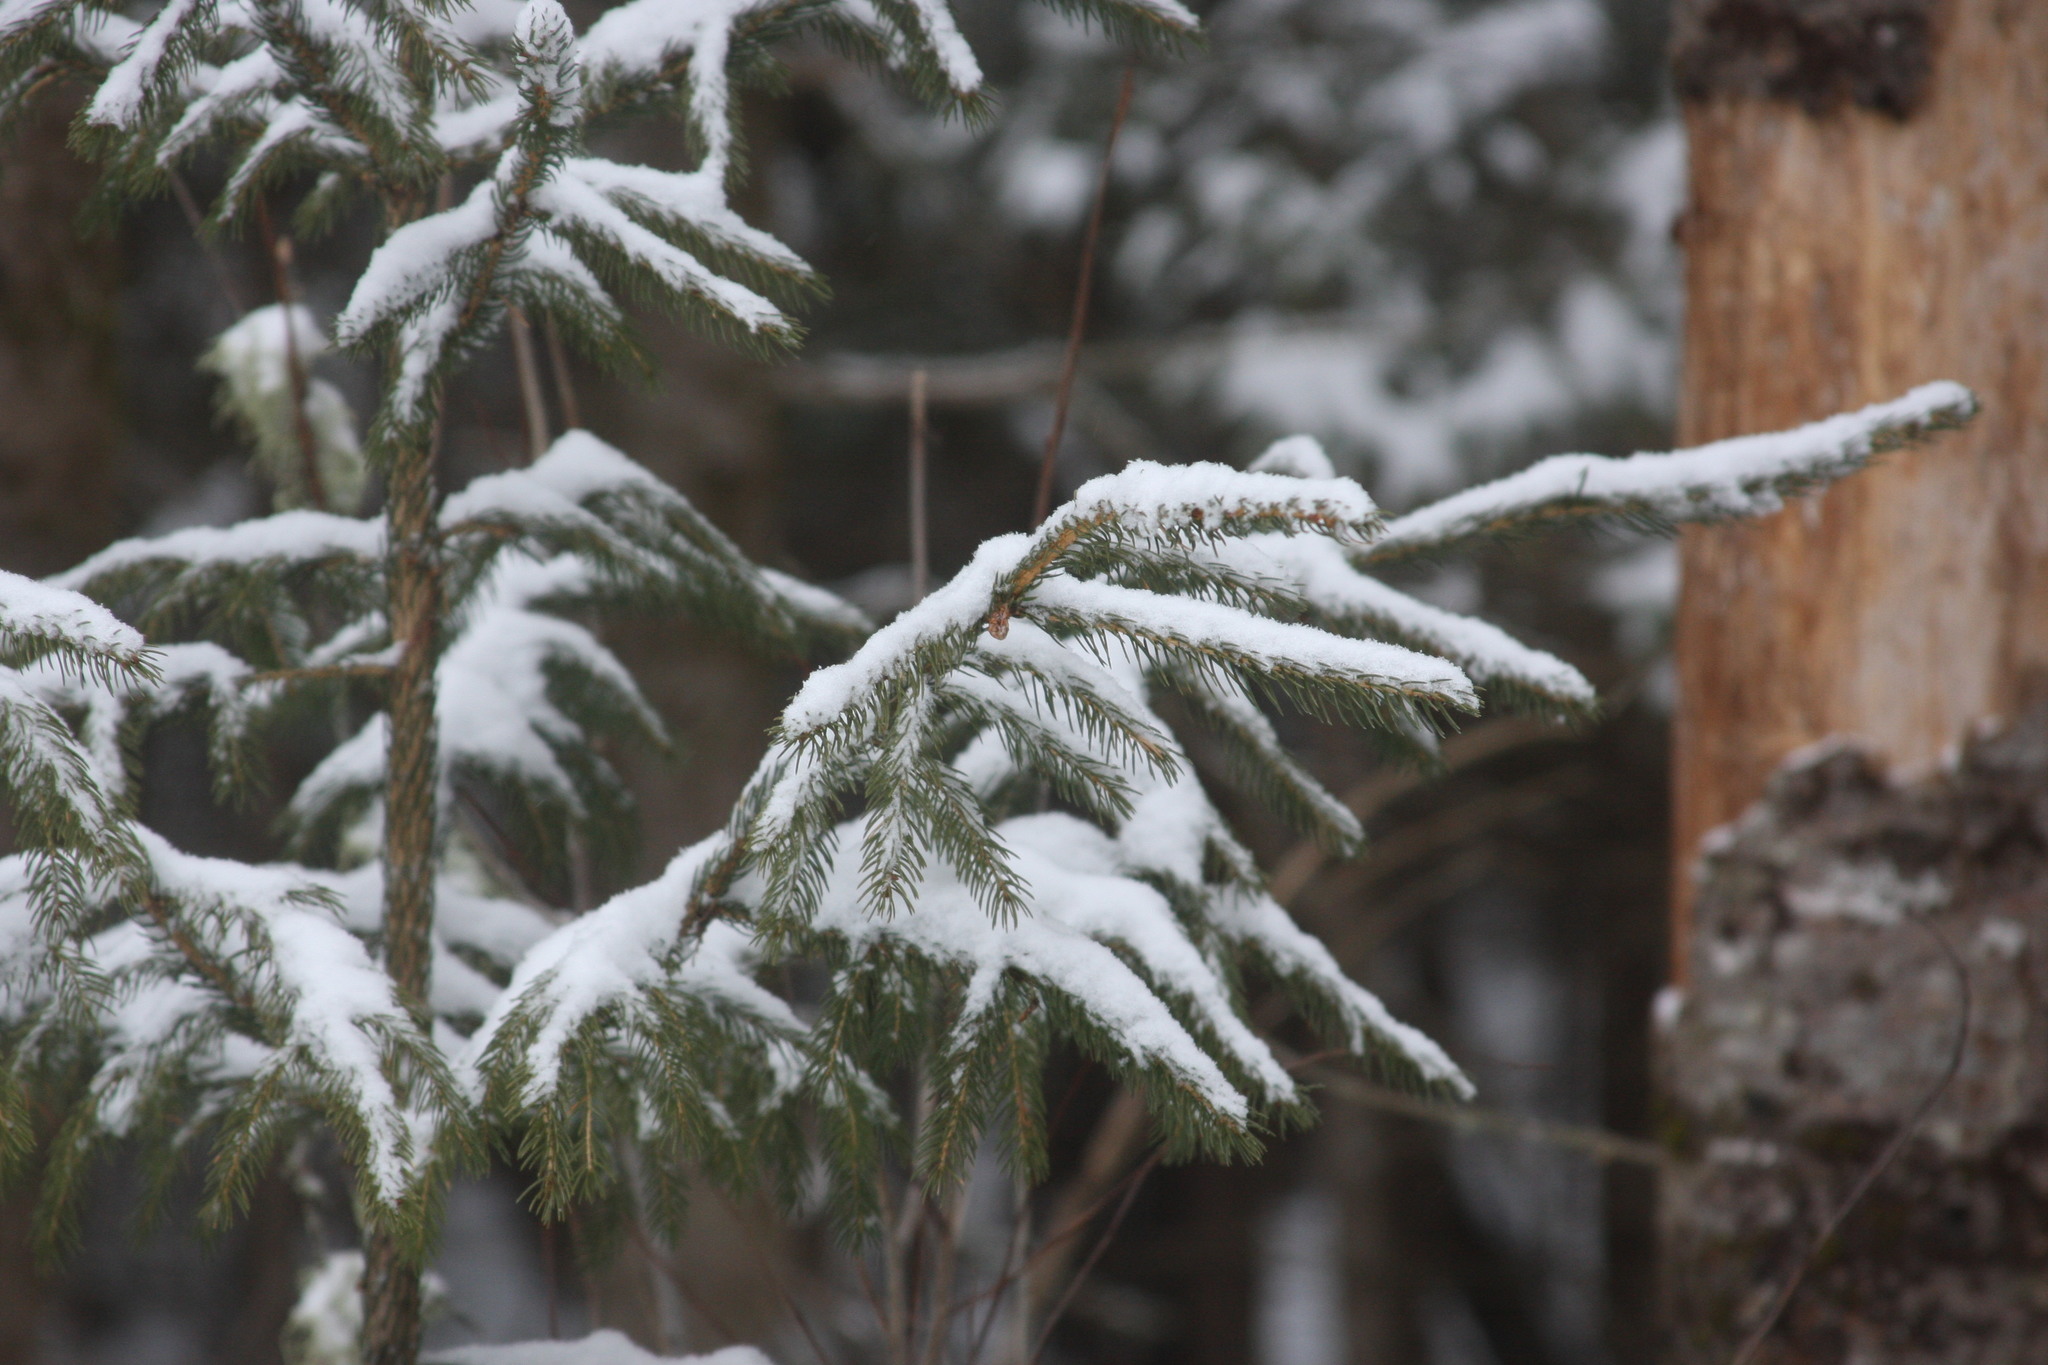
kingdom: Plantae
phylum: Tracheophyta
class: Pinopsida
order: Pinales
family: Pinaceae
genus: Picea
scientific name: Picea rubens
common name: Red spruce
